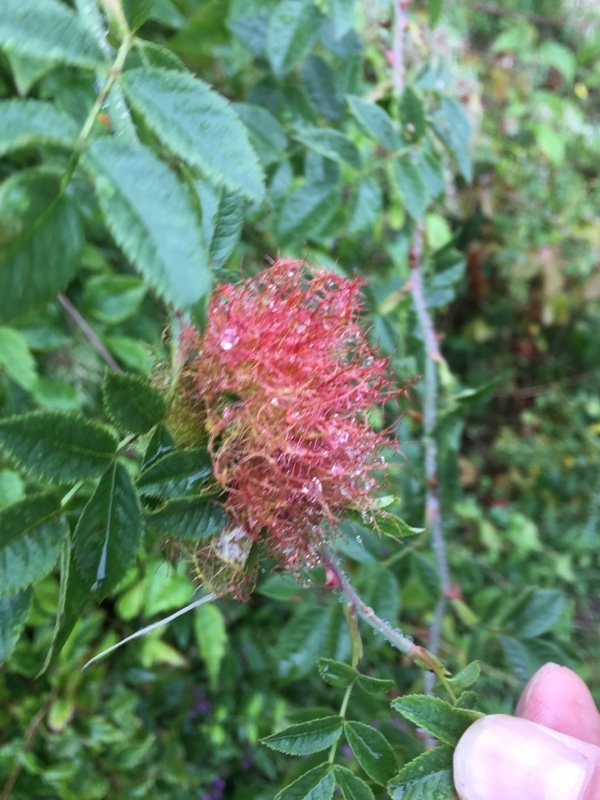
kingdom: Animalia
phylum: Arthropoda
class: Insecta
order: Hymenoptera
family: Cynipidae
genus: Diplolepis
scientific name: Diplolepis rosae
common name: Bedeguar gall
